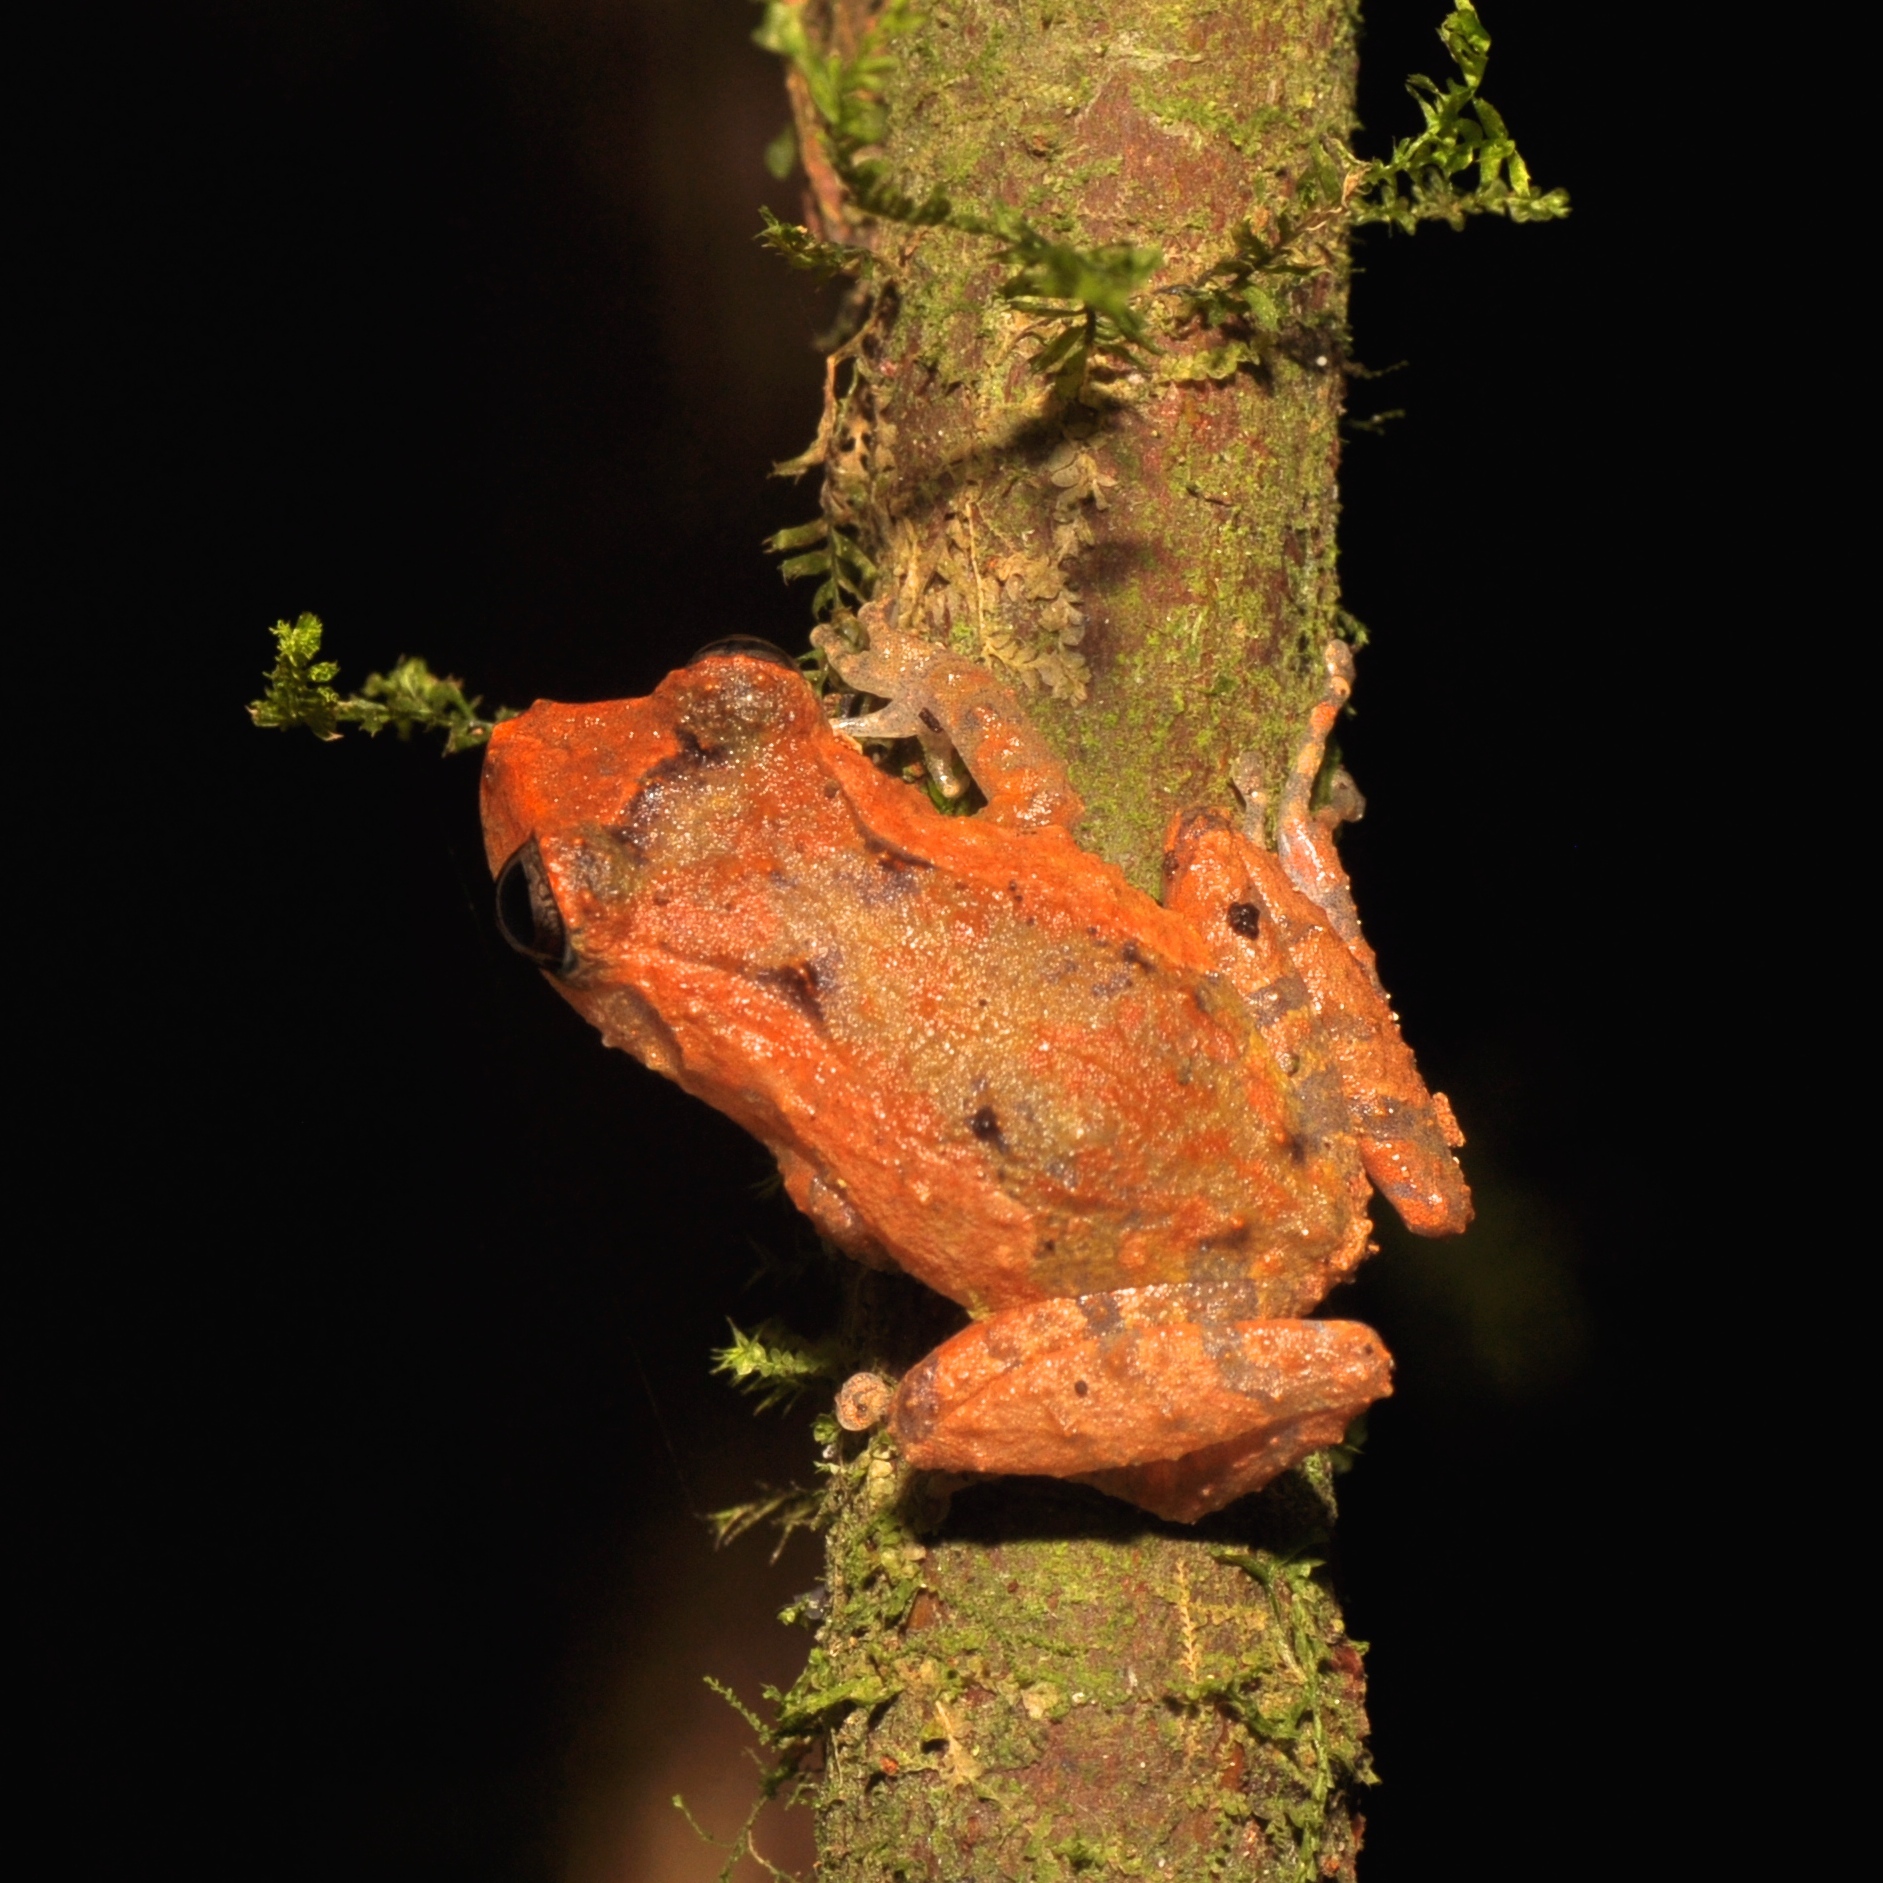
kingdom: Animalia
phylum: Chordata
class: Amphibia
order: Anura
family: Craugastoridae
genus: Pristimantis
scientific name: Pristimantis walkeri
